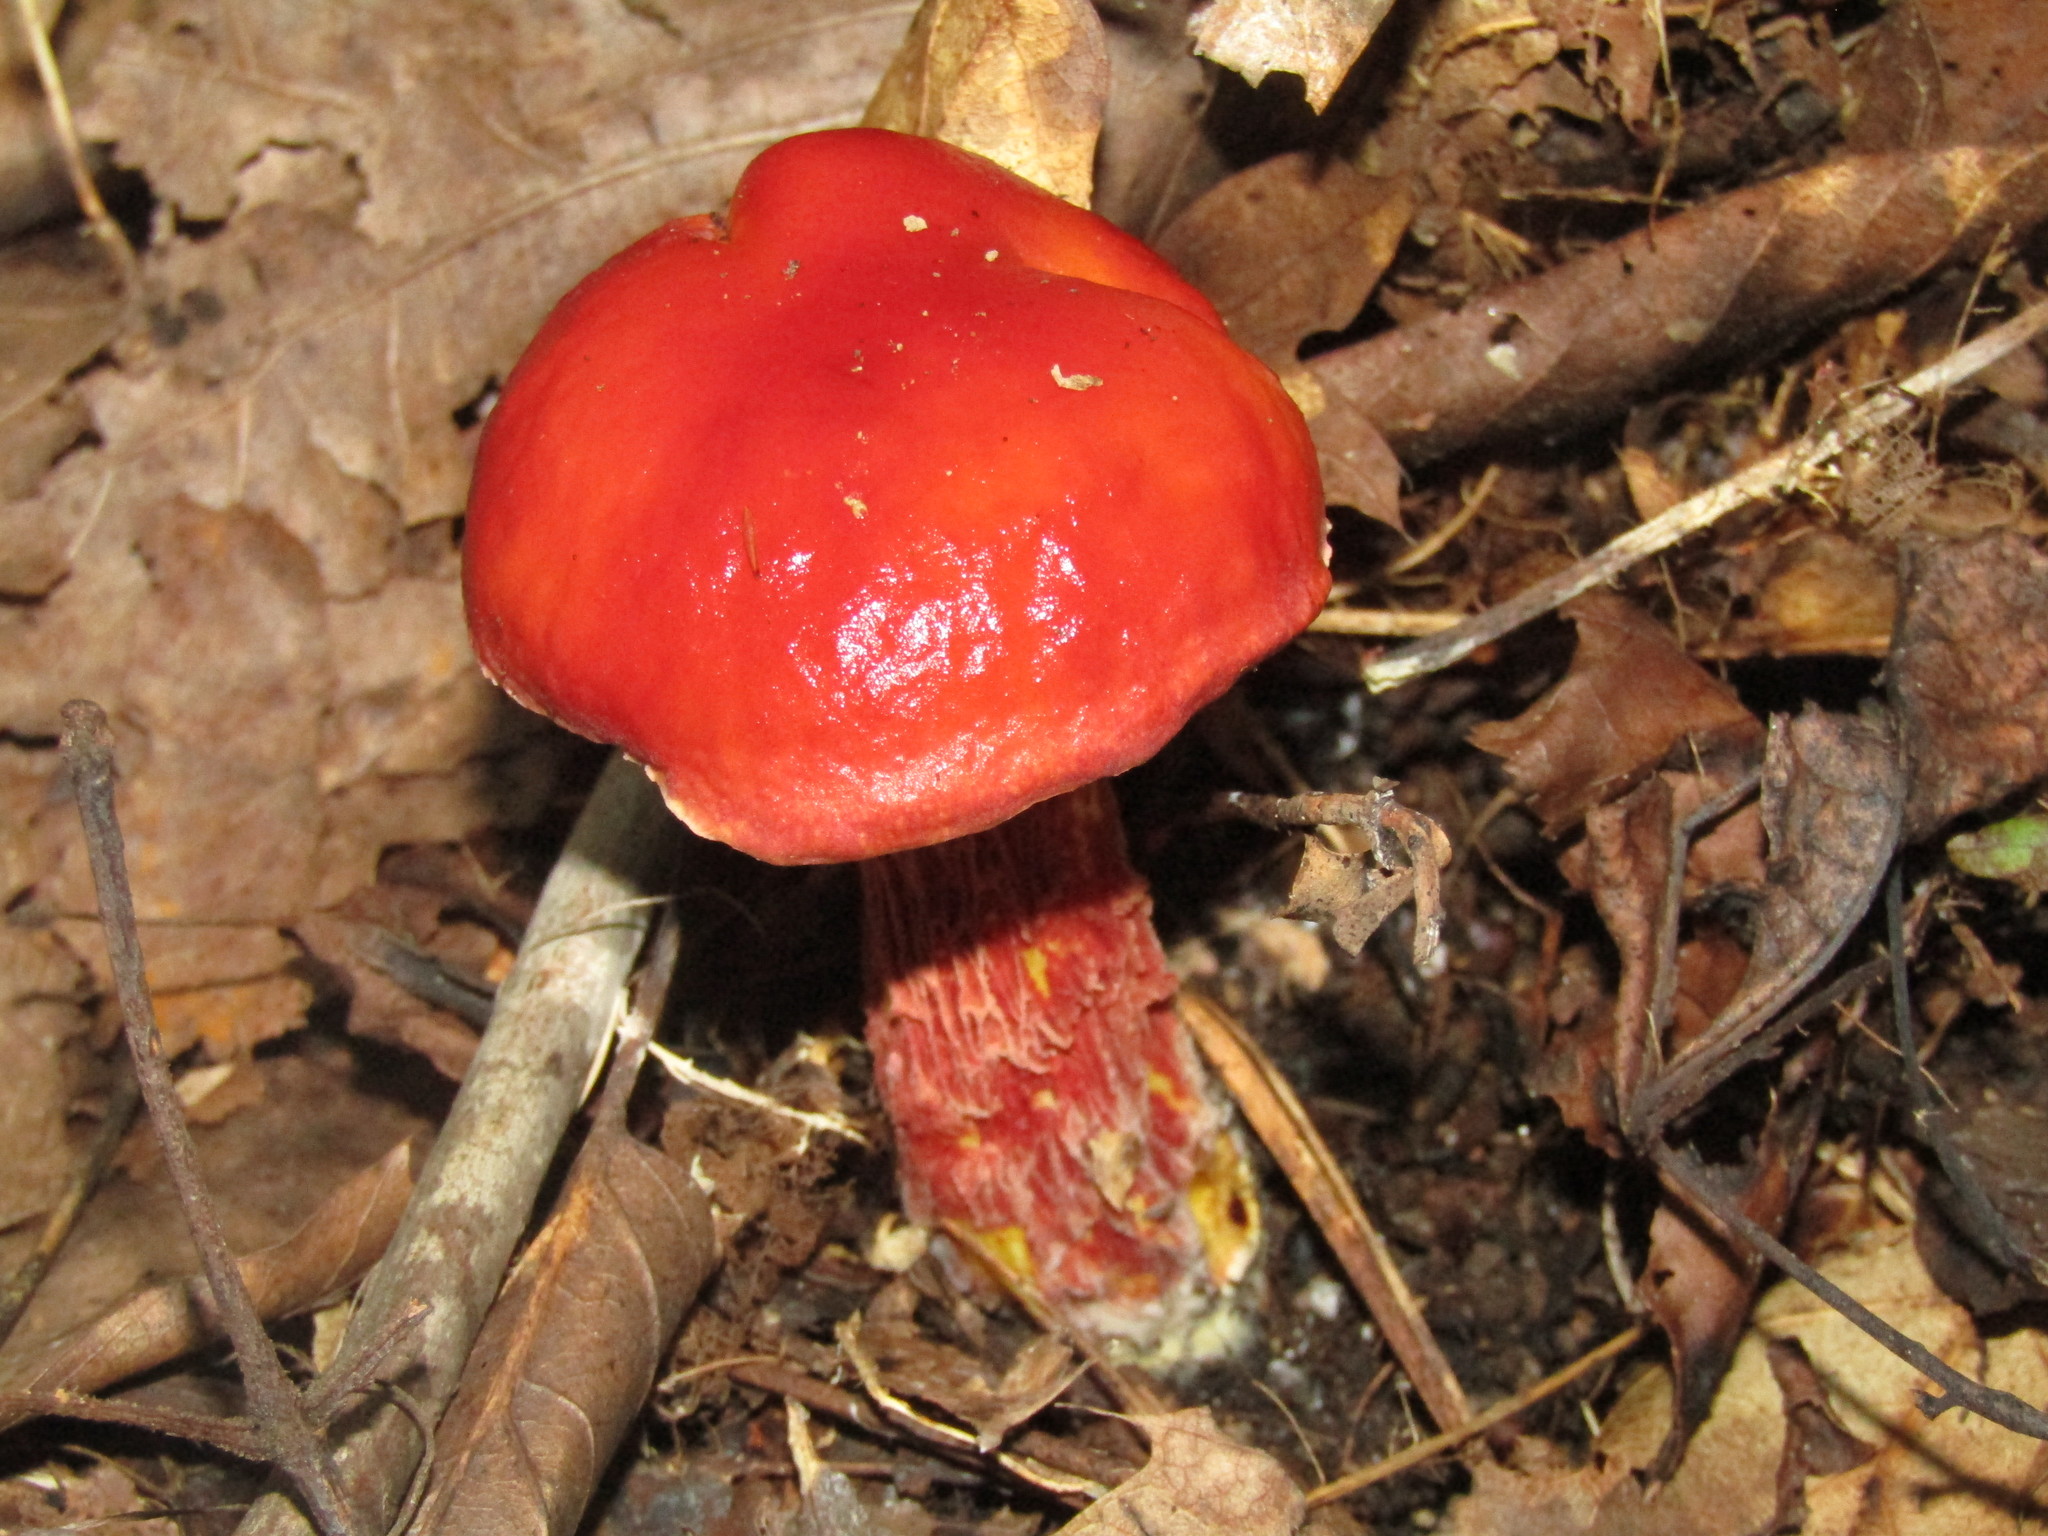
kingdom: Fungi
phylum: Basidiomycota
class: Agaricomycetes
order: Boletales
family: Boletaceae
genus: Butyriboletus
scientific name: Butyriboletus frostii
